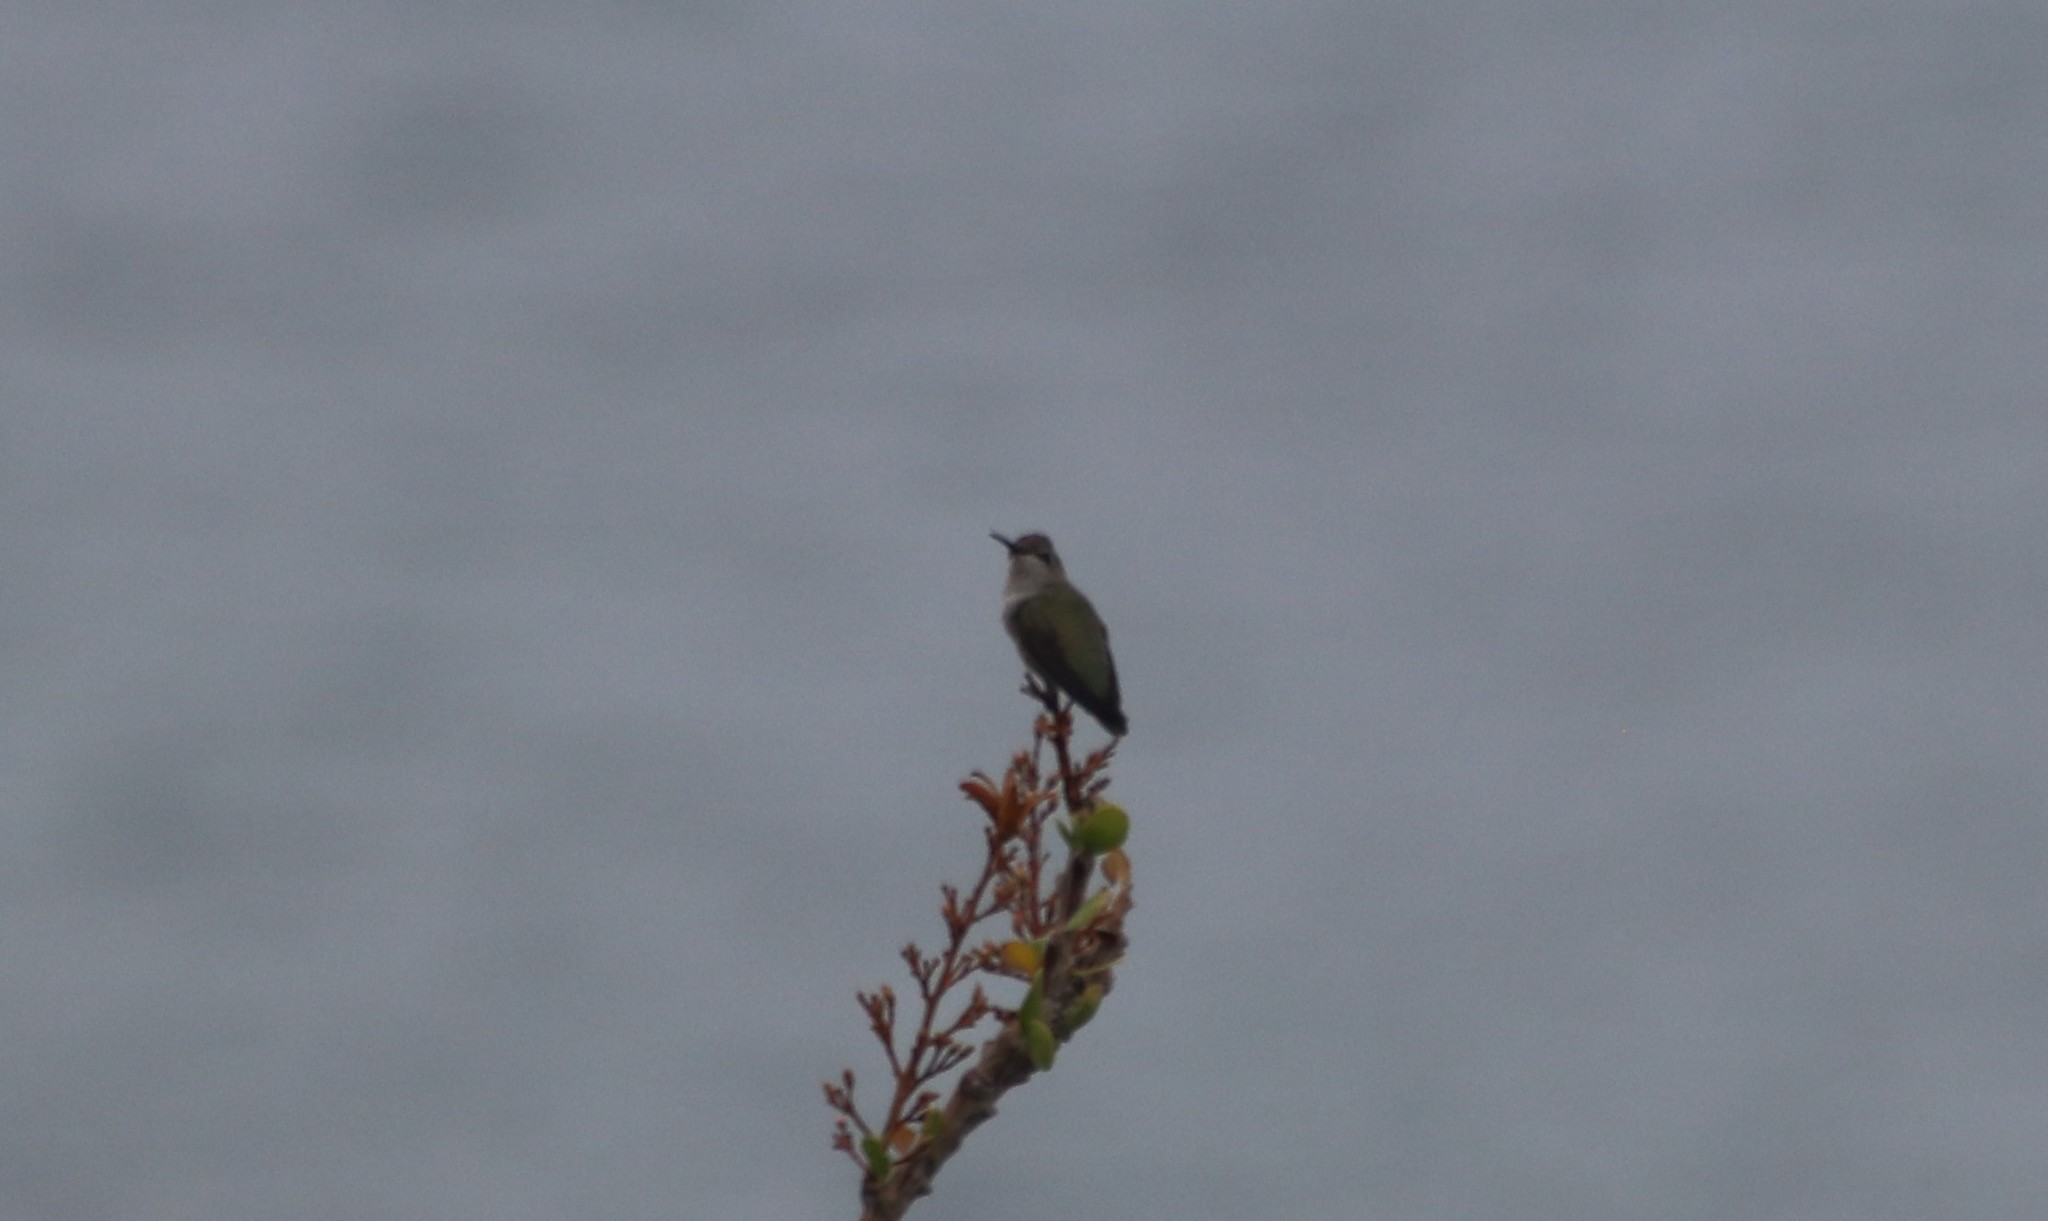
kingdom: Animalia
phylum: Chordata
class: Aves
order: Apodiformes
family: Trochilidae
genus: Calypte
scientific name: Calypte costae
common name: Costa's hummingbird
